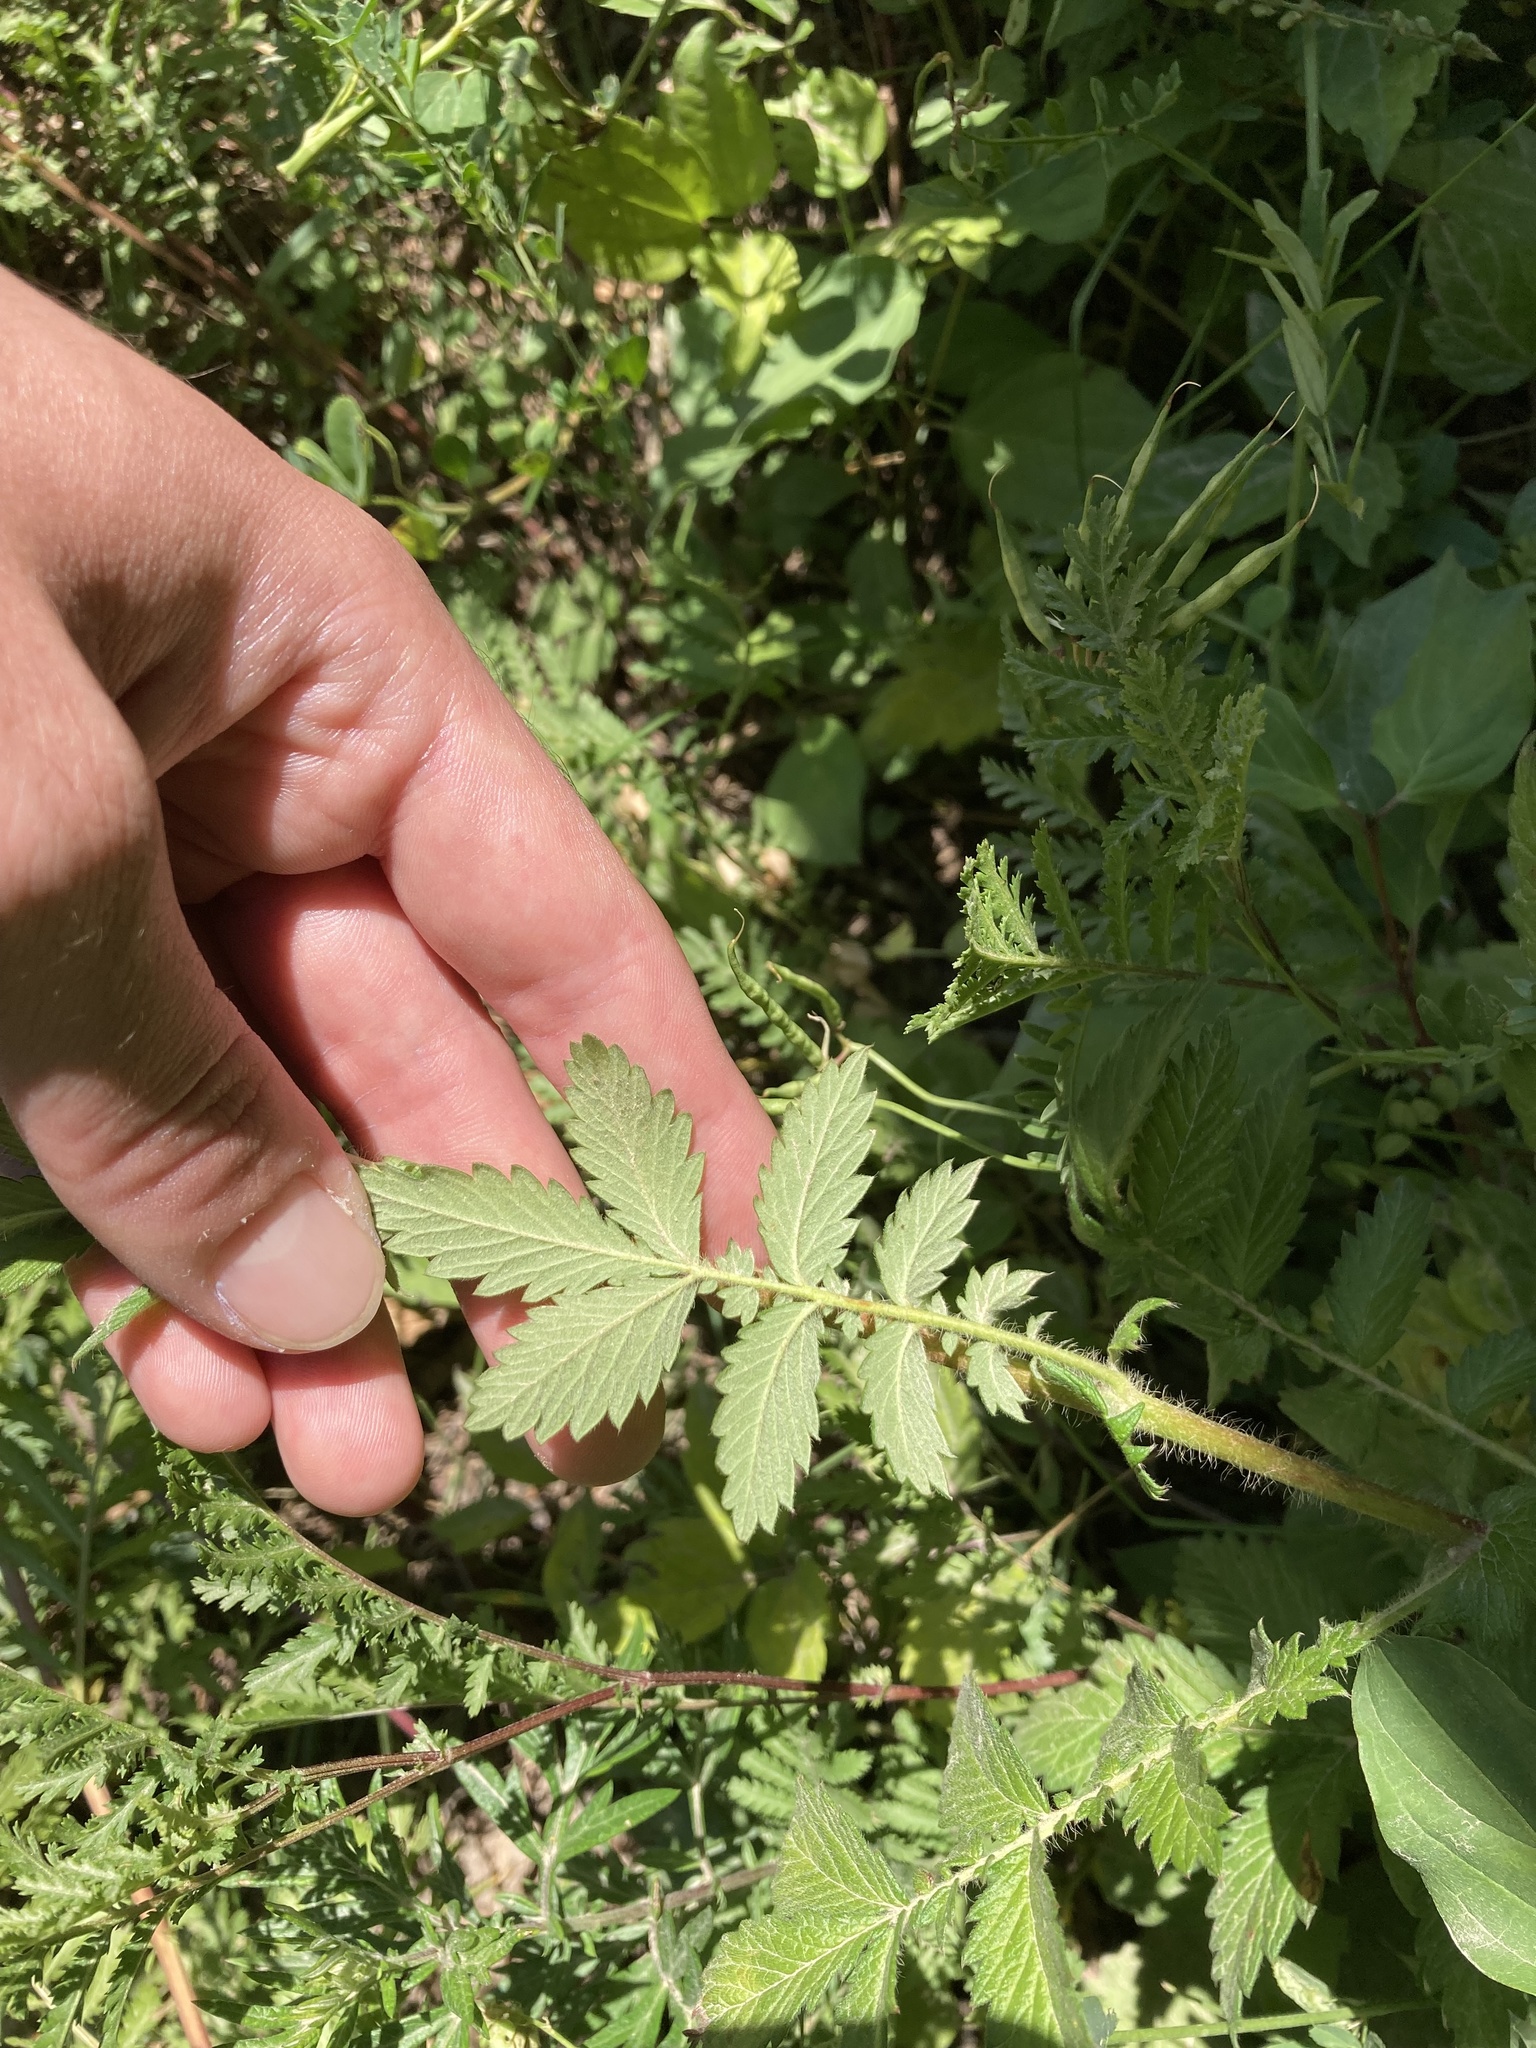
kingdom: Plantae
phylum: Tracheophyta
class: Magnoliopsida
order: Rosales
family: Rosaceae
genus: Agrimonia
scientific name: Agrimonia eupatoria
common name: Agrimony
